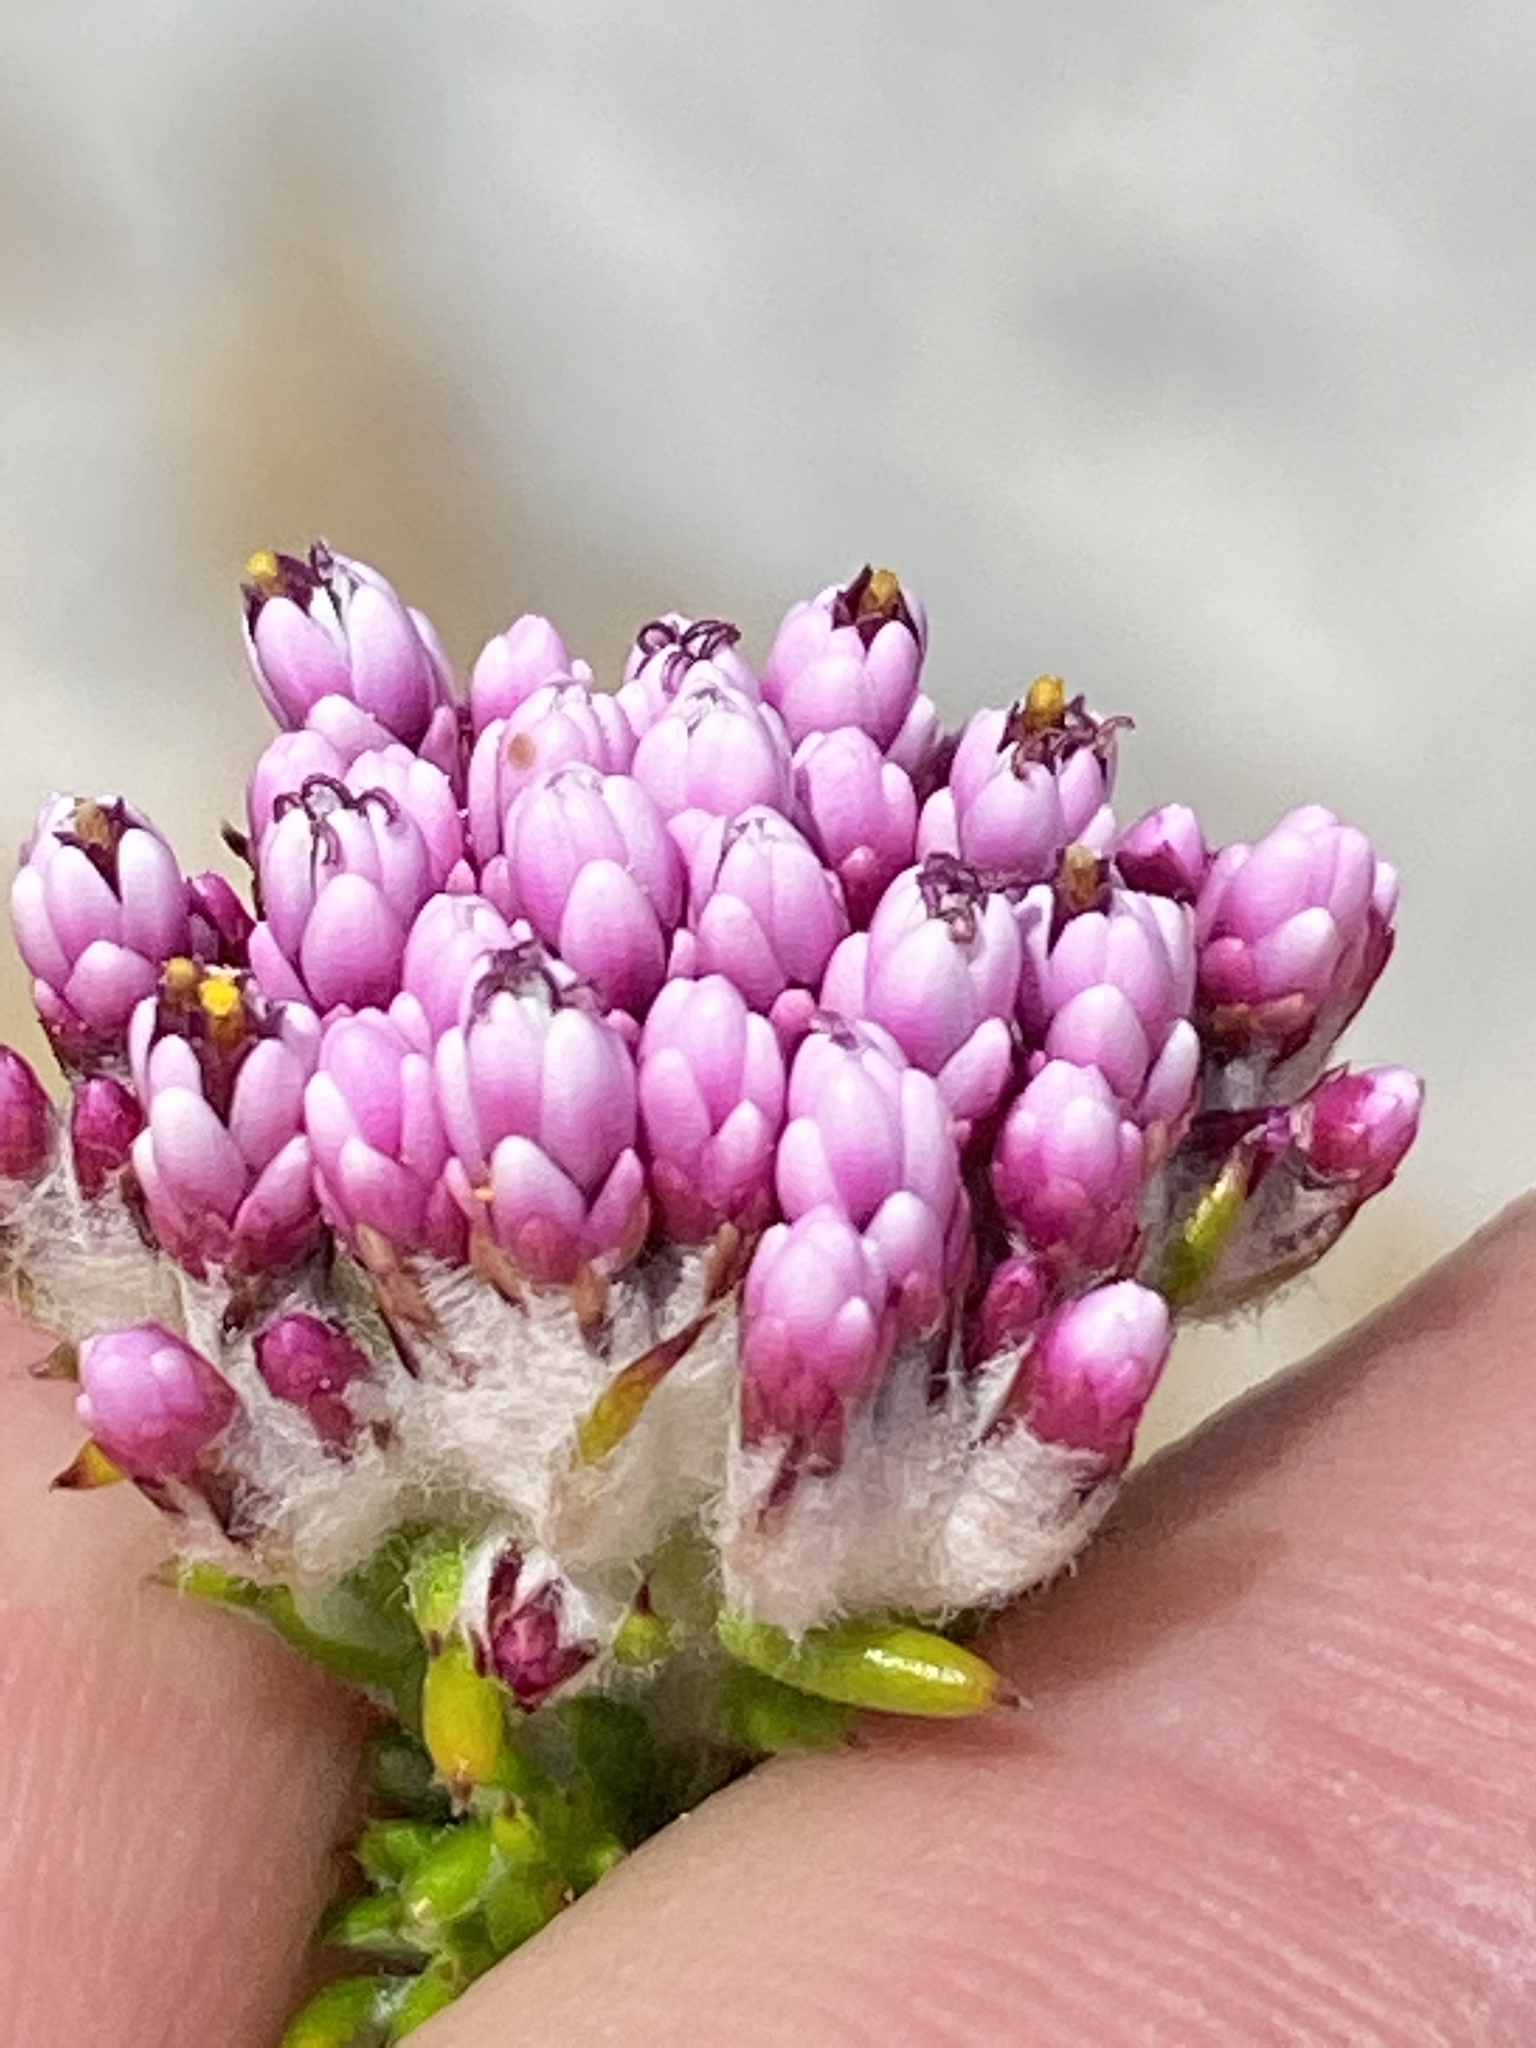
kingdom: Plantae
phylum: Tracheophyta
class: Magnoliopsida
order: Asterales
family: Asteraceae
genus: Metalasia
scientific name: Metalasia erubescens
